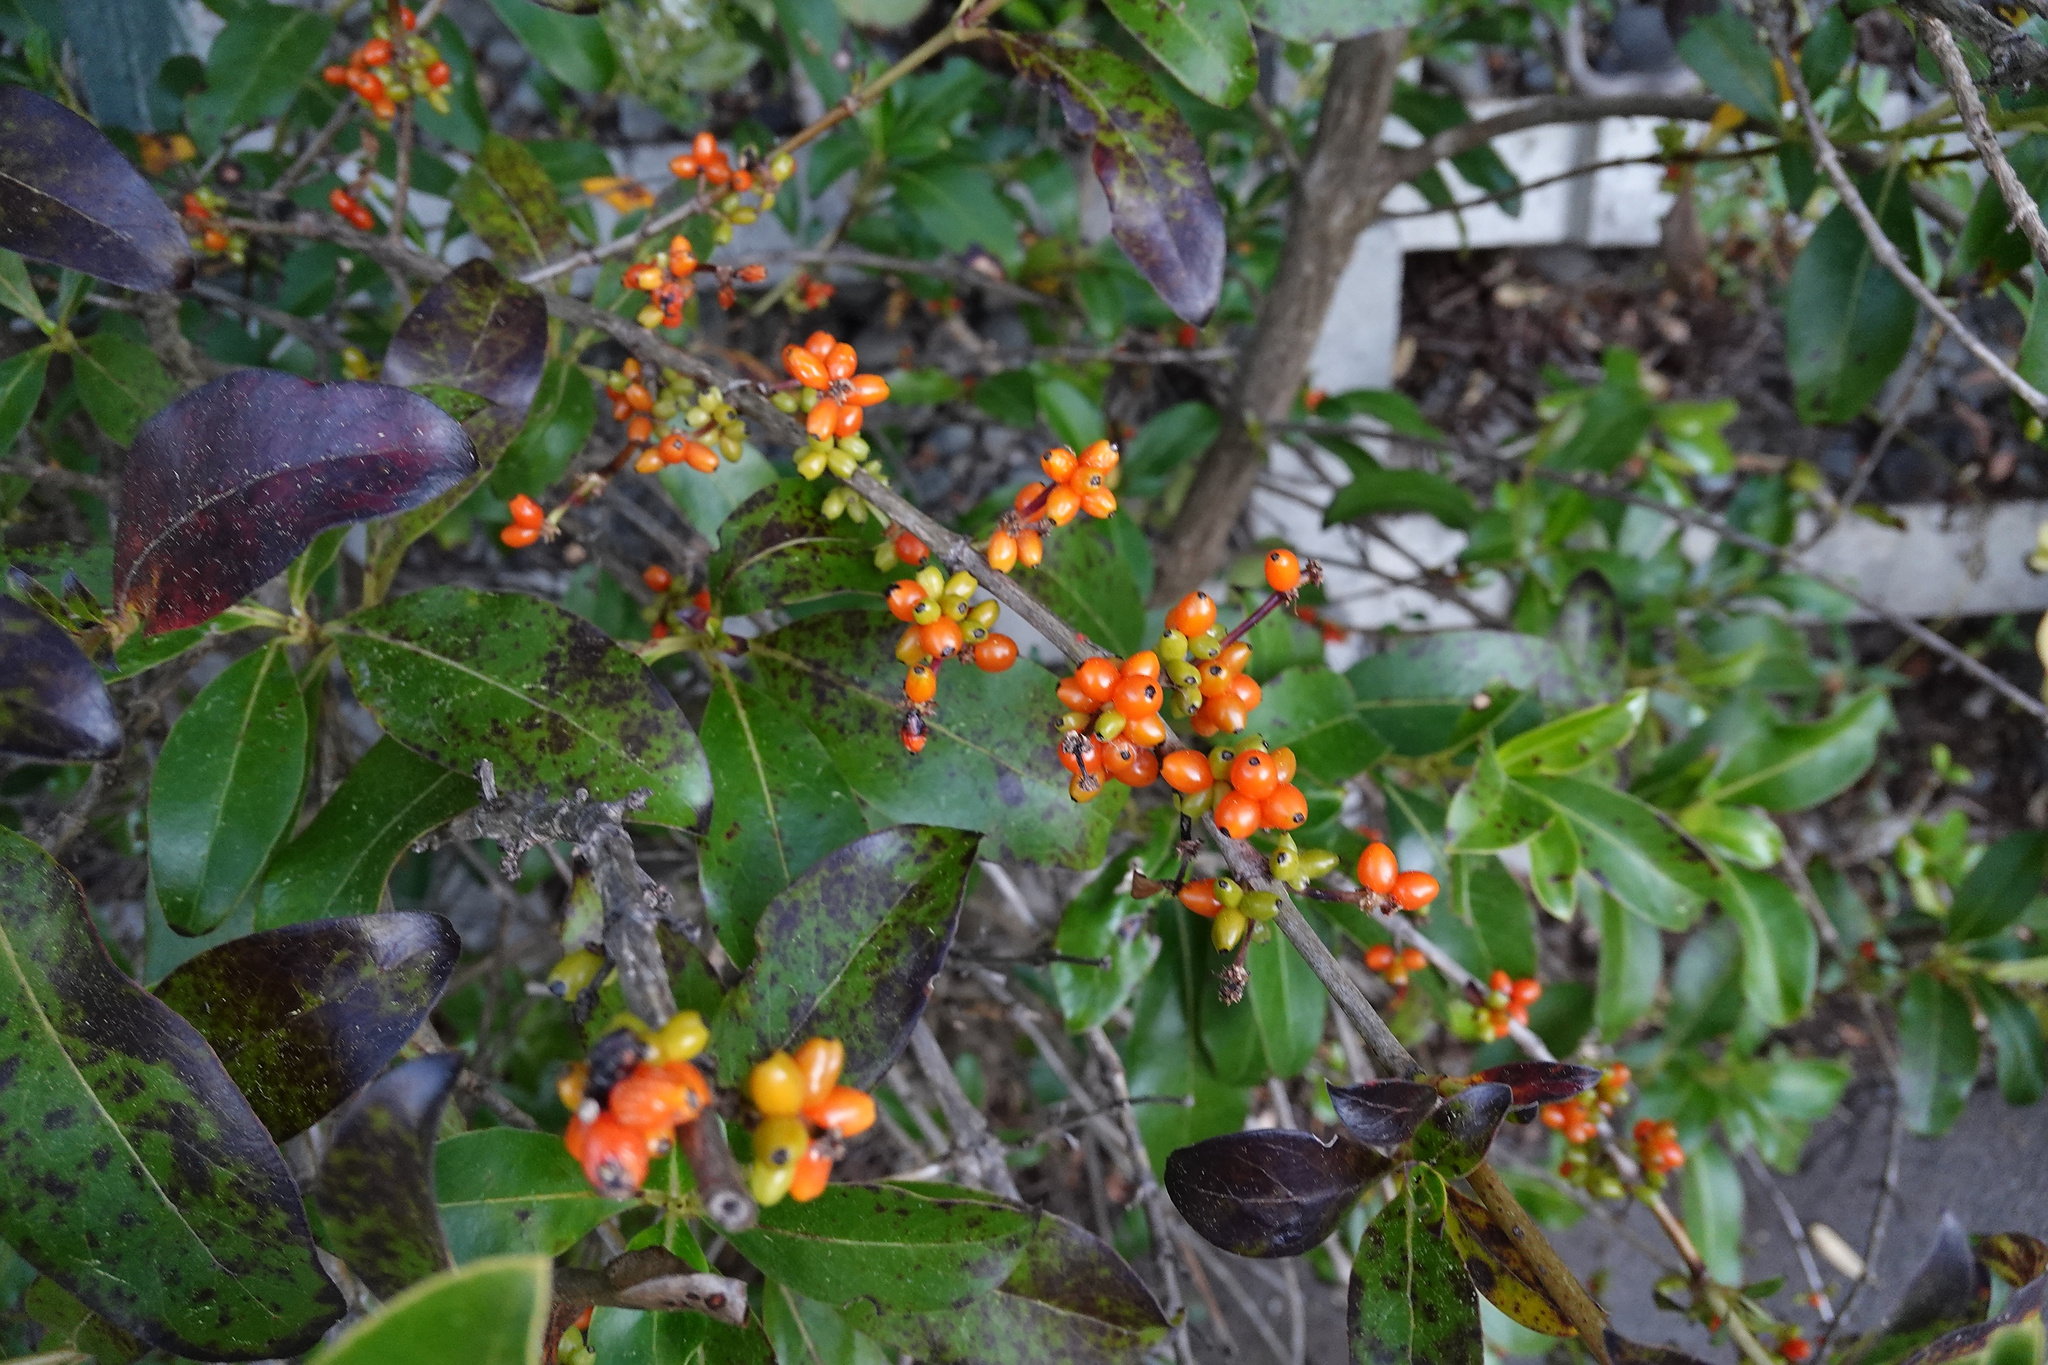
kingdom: Plantae
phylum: Tracheophyta
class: Magnoliopsida
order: Gentianales
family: Rubiaceae
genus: Coprosma
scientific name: Coprosma robusta
